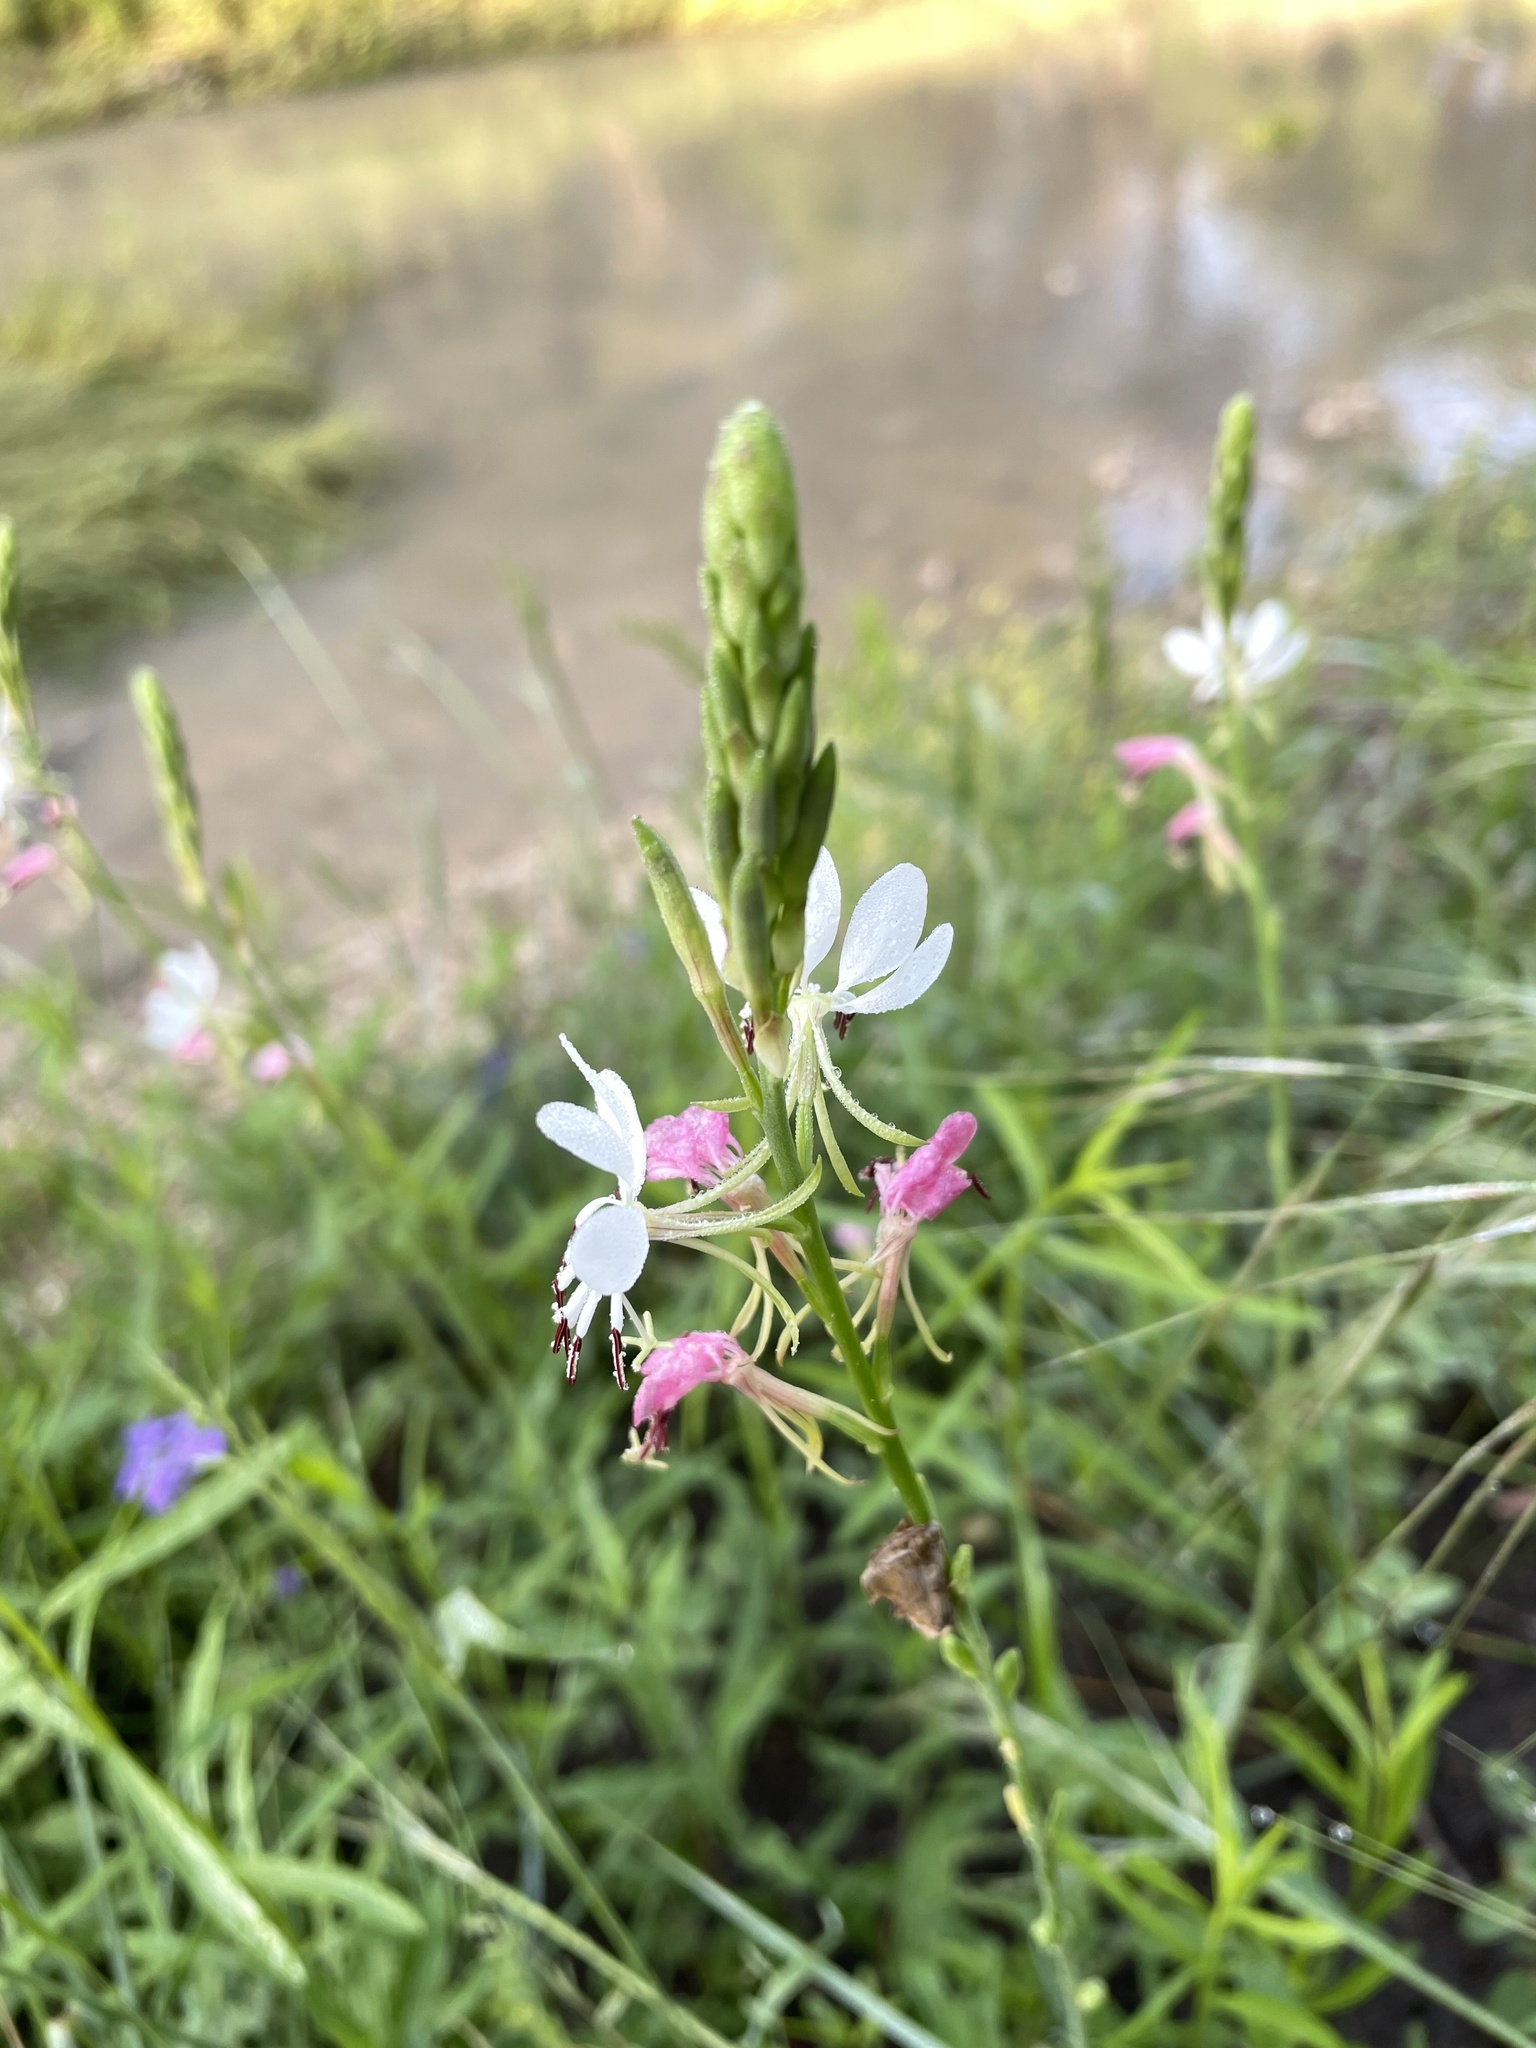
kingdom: Plantae
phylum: Tracheophyta
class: Magnoliopsida
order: Myrtales
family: Onagraceae
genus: Oenothera
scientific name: Oenothera suffulta
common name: Kisses
